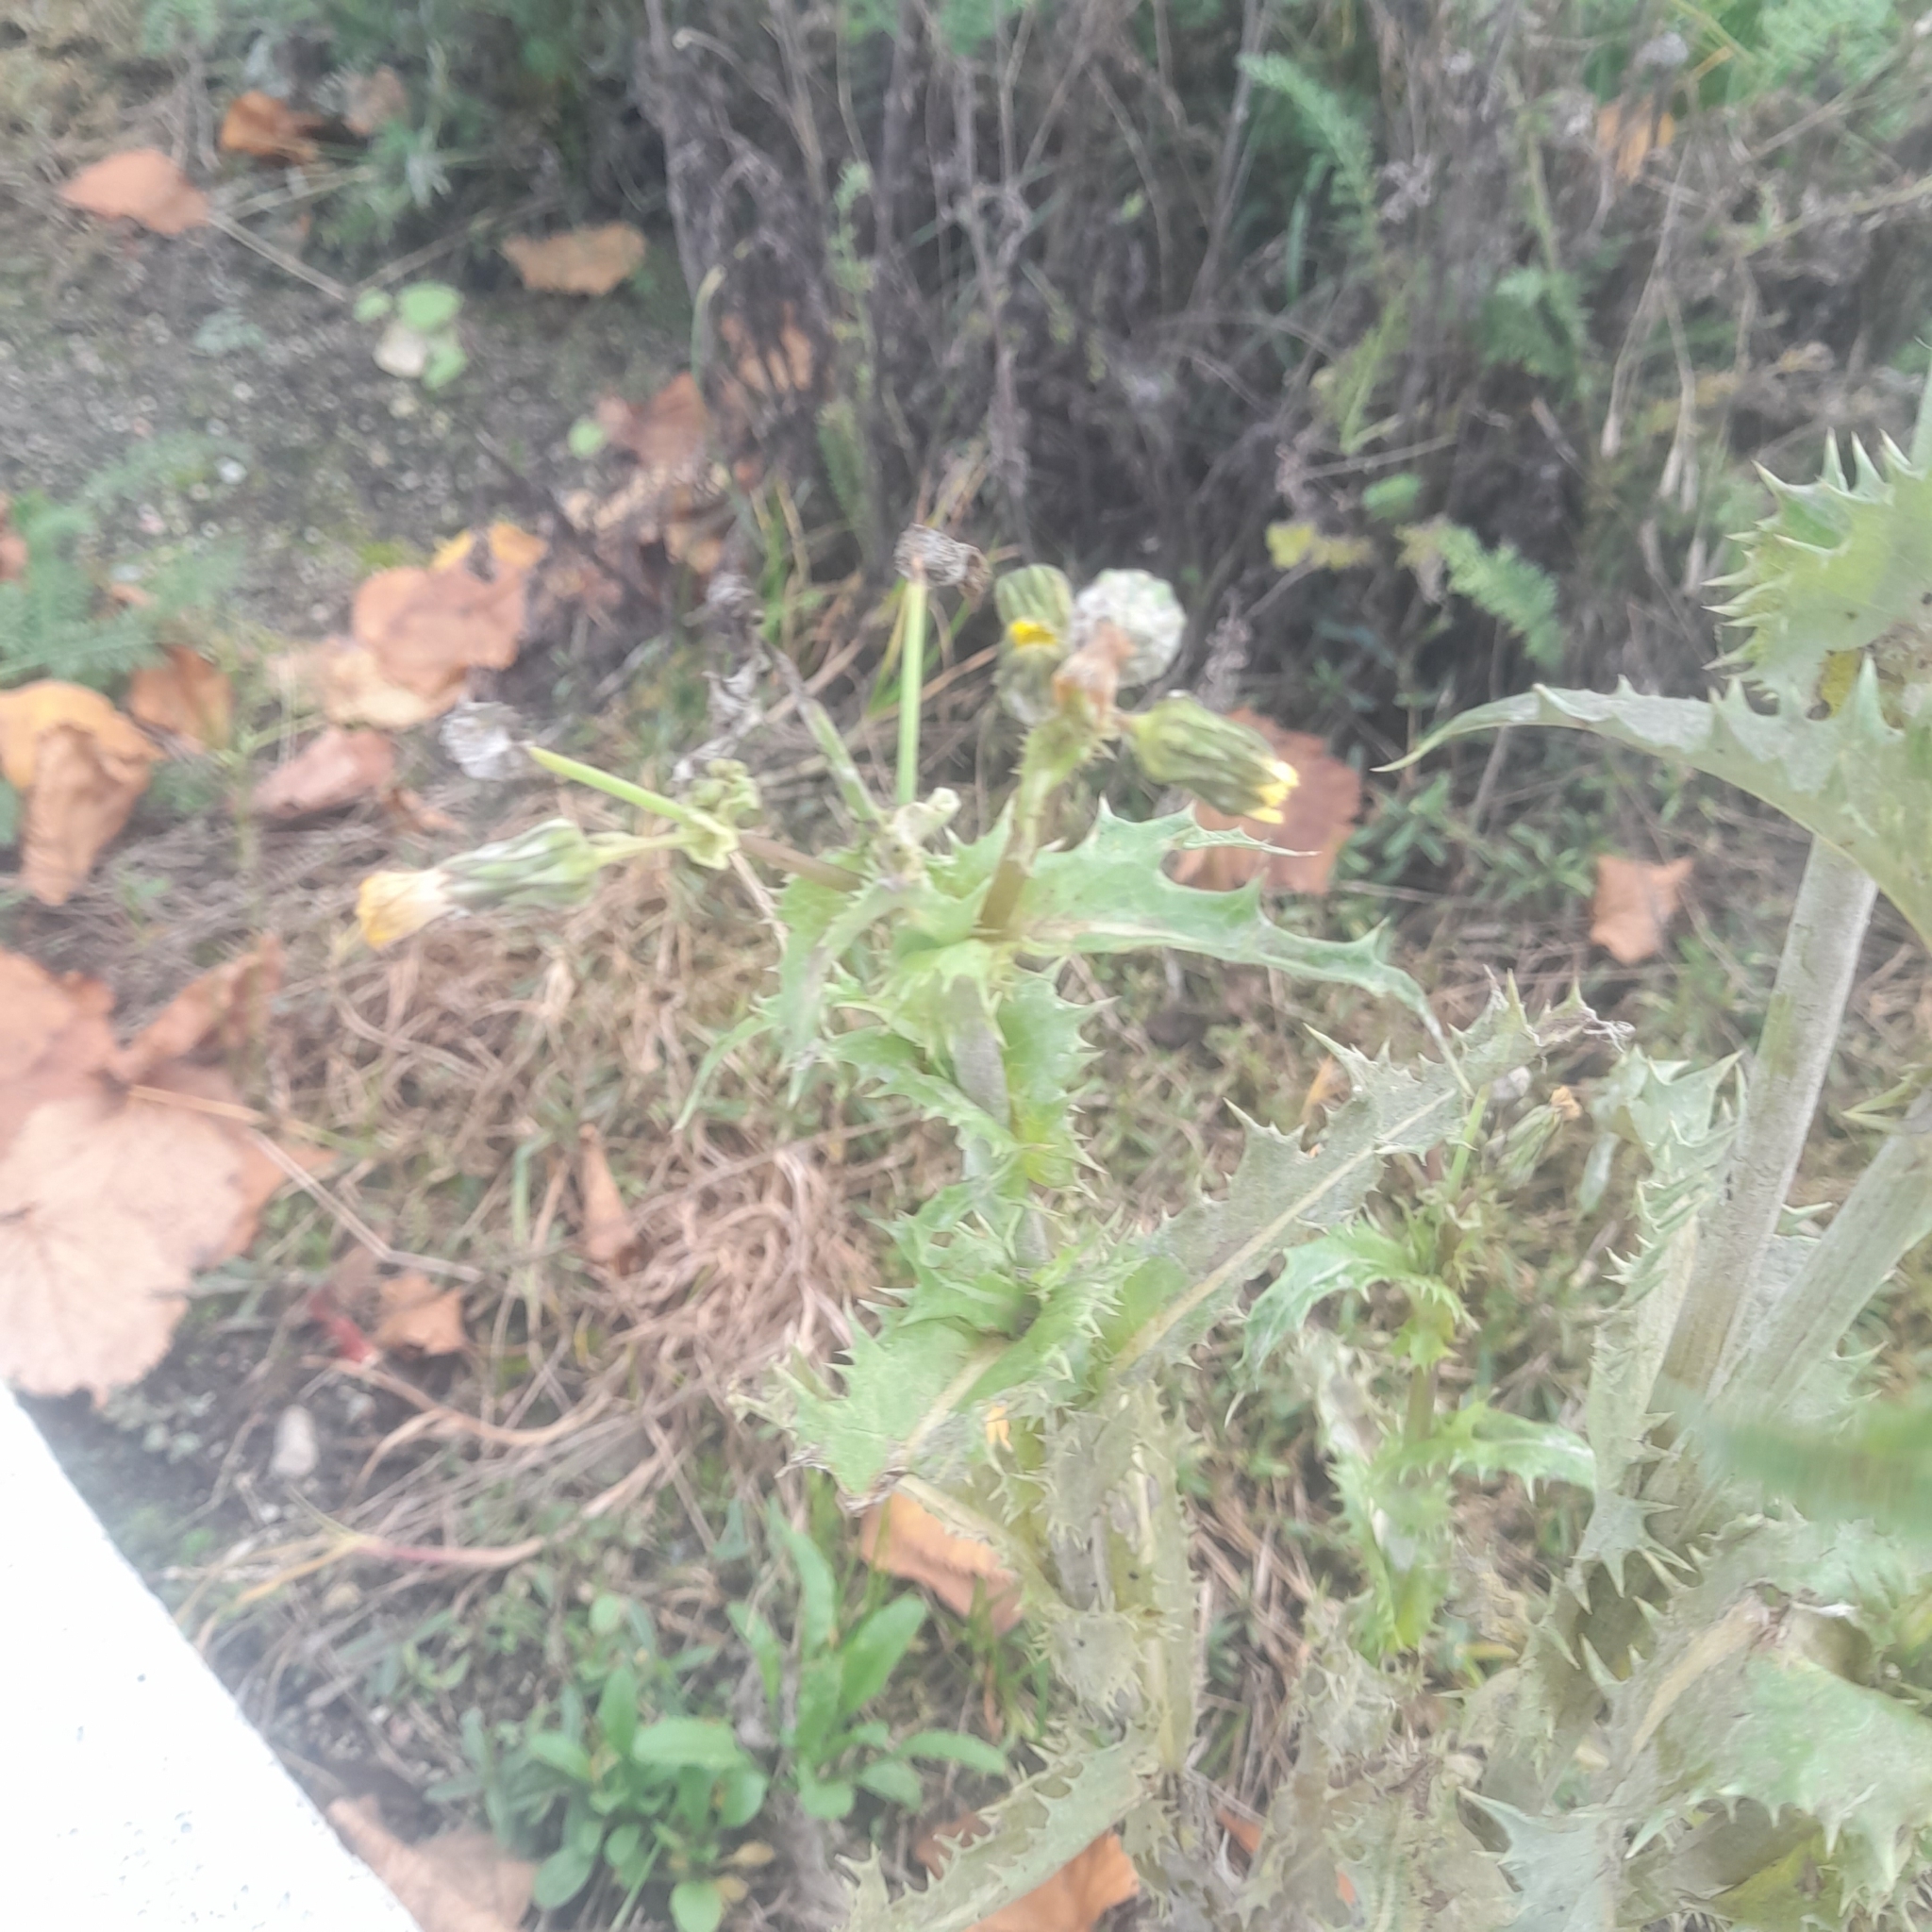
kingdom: Plantae
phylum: Tracheophyta
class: Magnoliopsida
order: Asterales
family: Asteraceae
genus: Sonchus
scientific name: Sonchus asper
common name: Prickly sow-thistle
